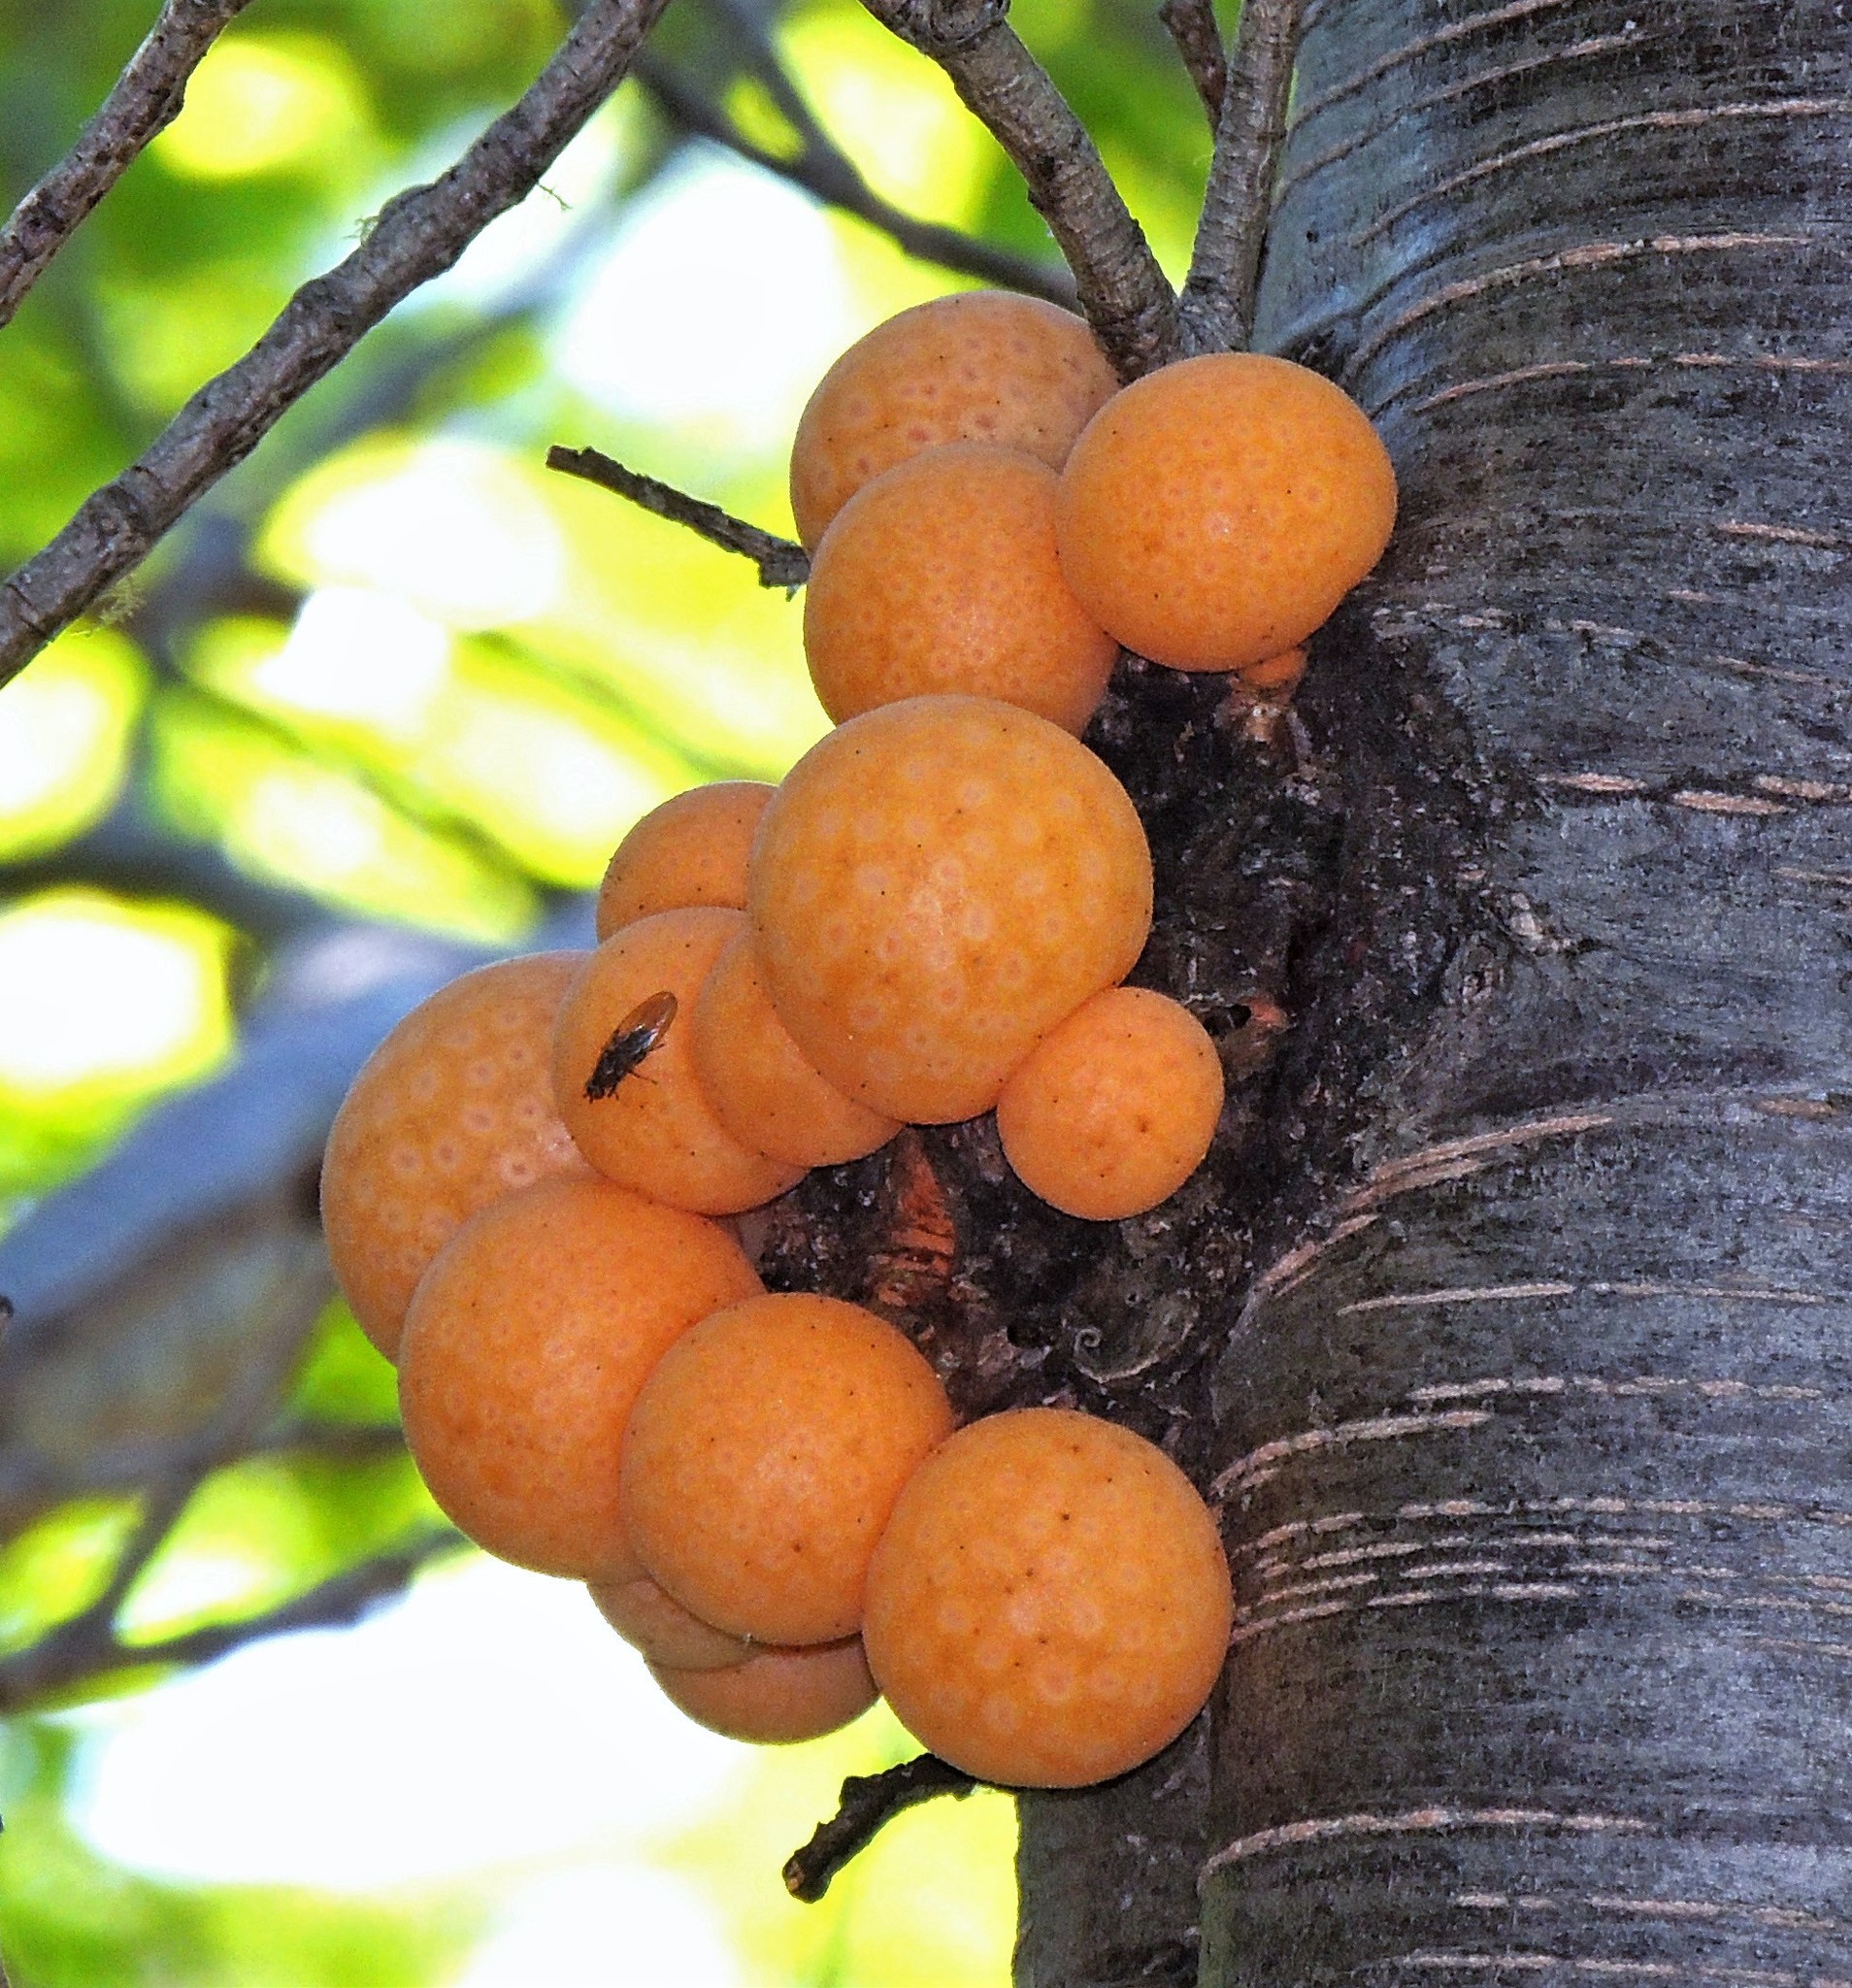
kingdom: Fungi
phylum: Ascomycota
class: Leotiomycetes
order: Cyttariales
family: Cyttariaceae
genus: Cyttaria
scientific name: Cyttaria hariotii
